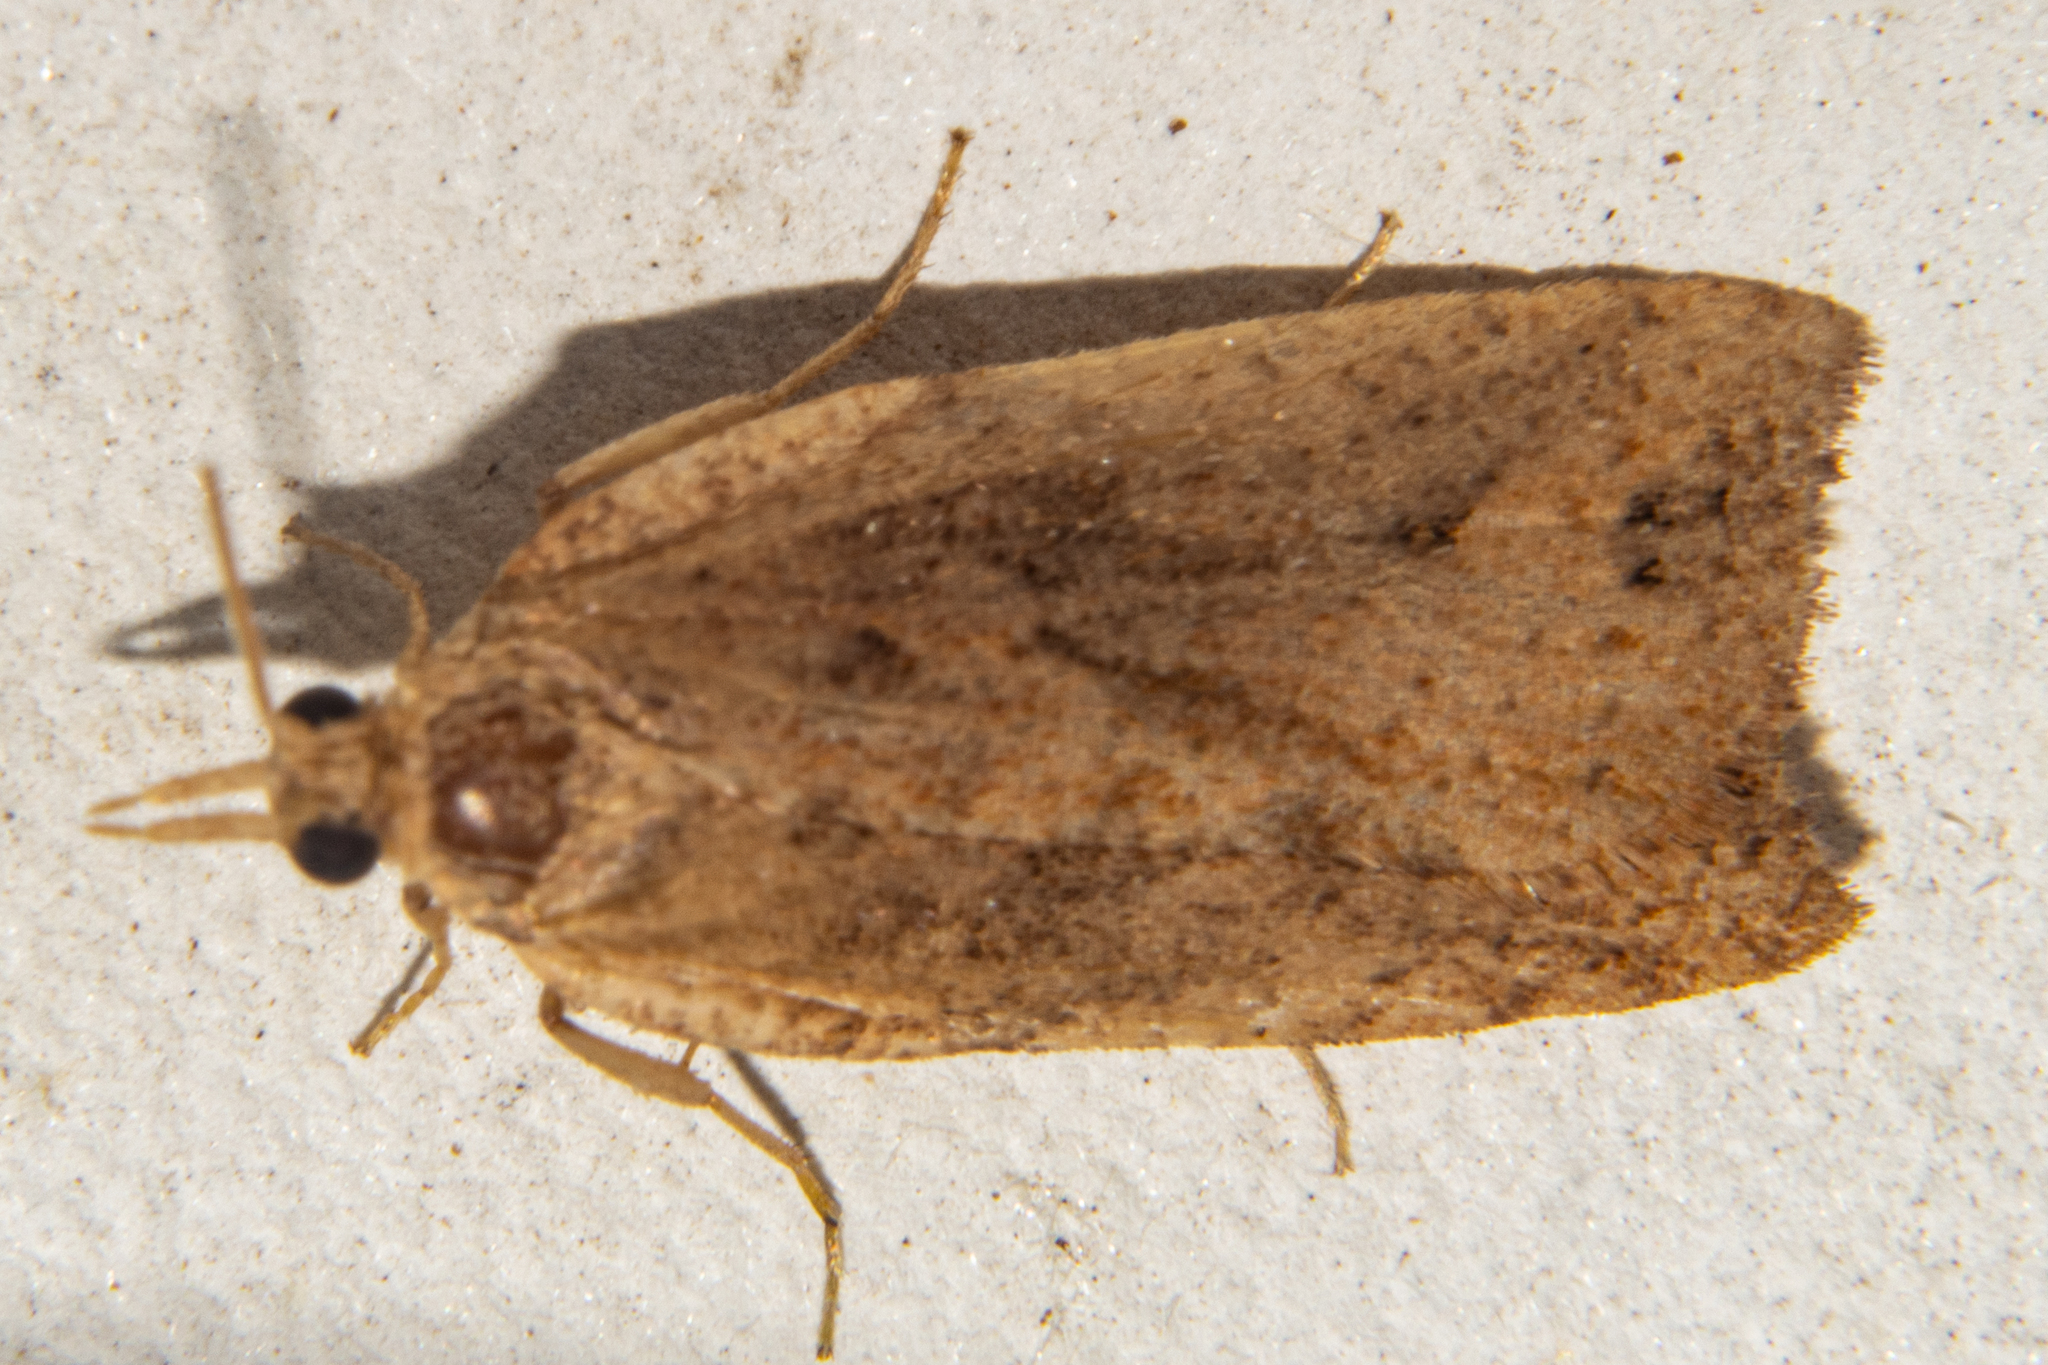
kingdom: Animalia
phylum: Arthropoda
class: Insecta
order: Lepidoptera
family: Tortricidae
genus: Planotortrix
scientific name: Planotortrix notophaea
